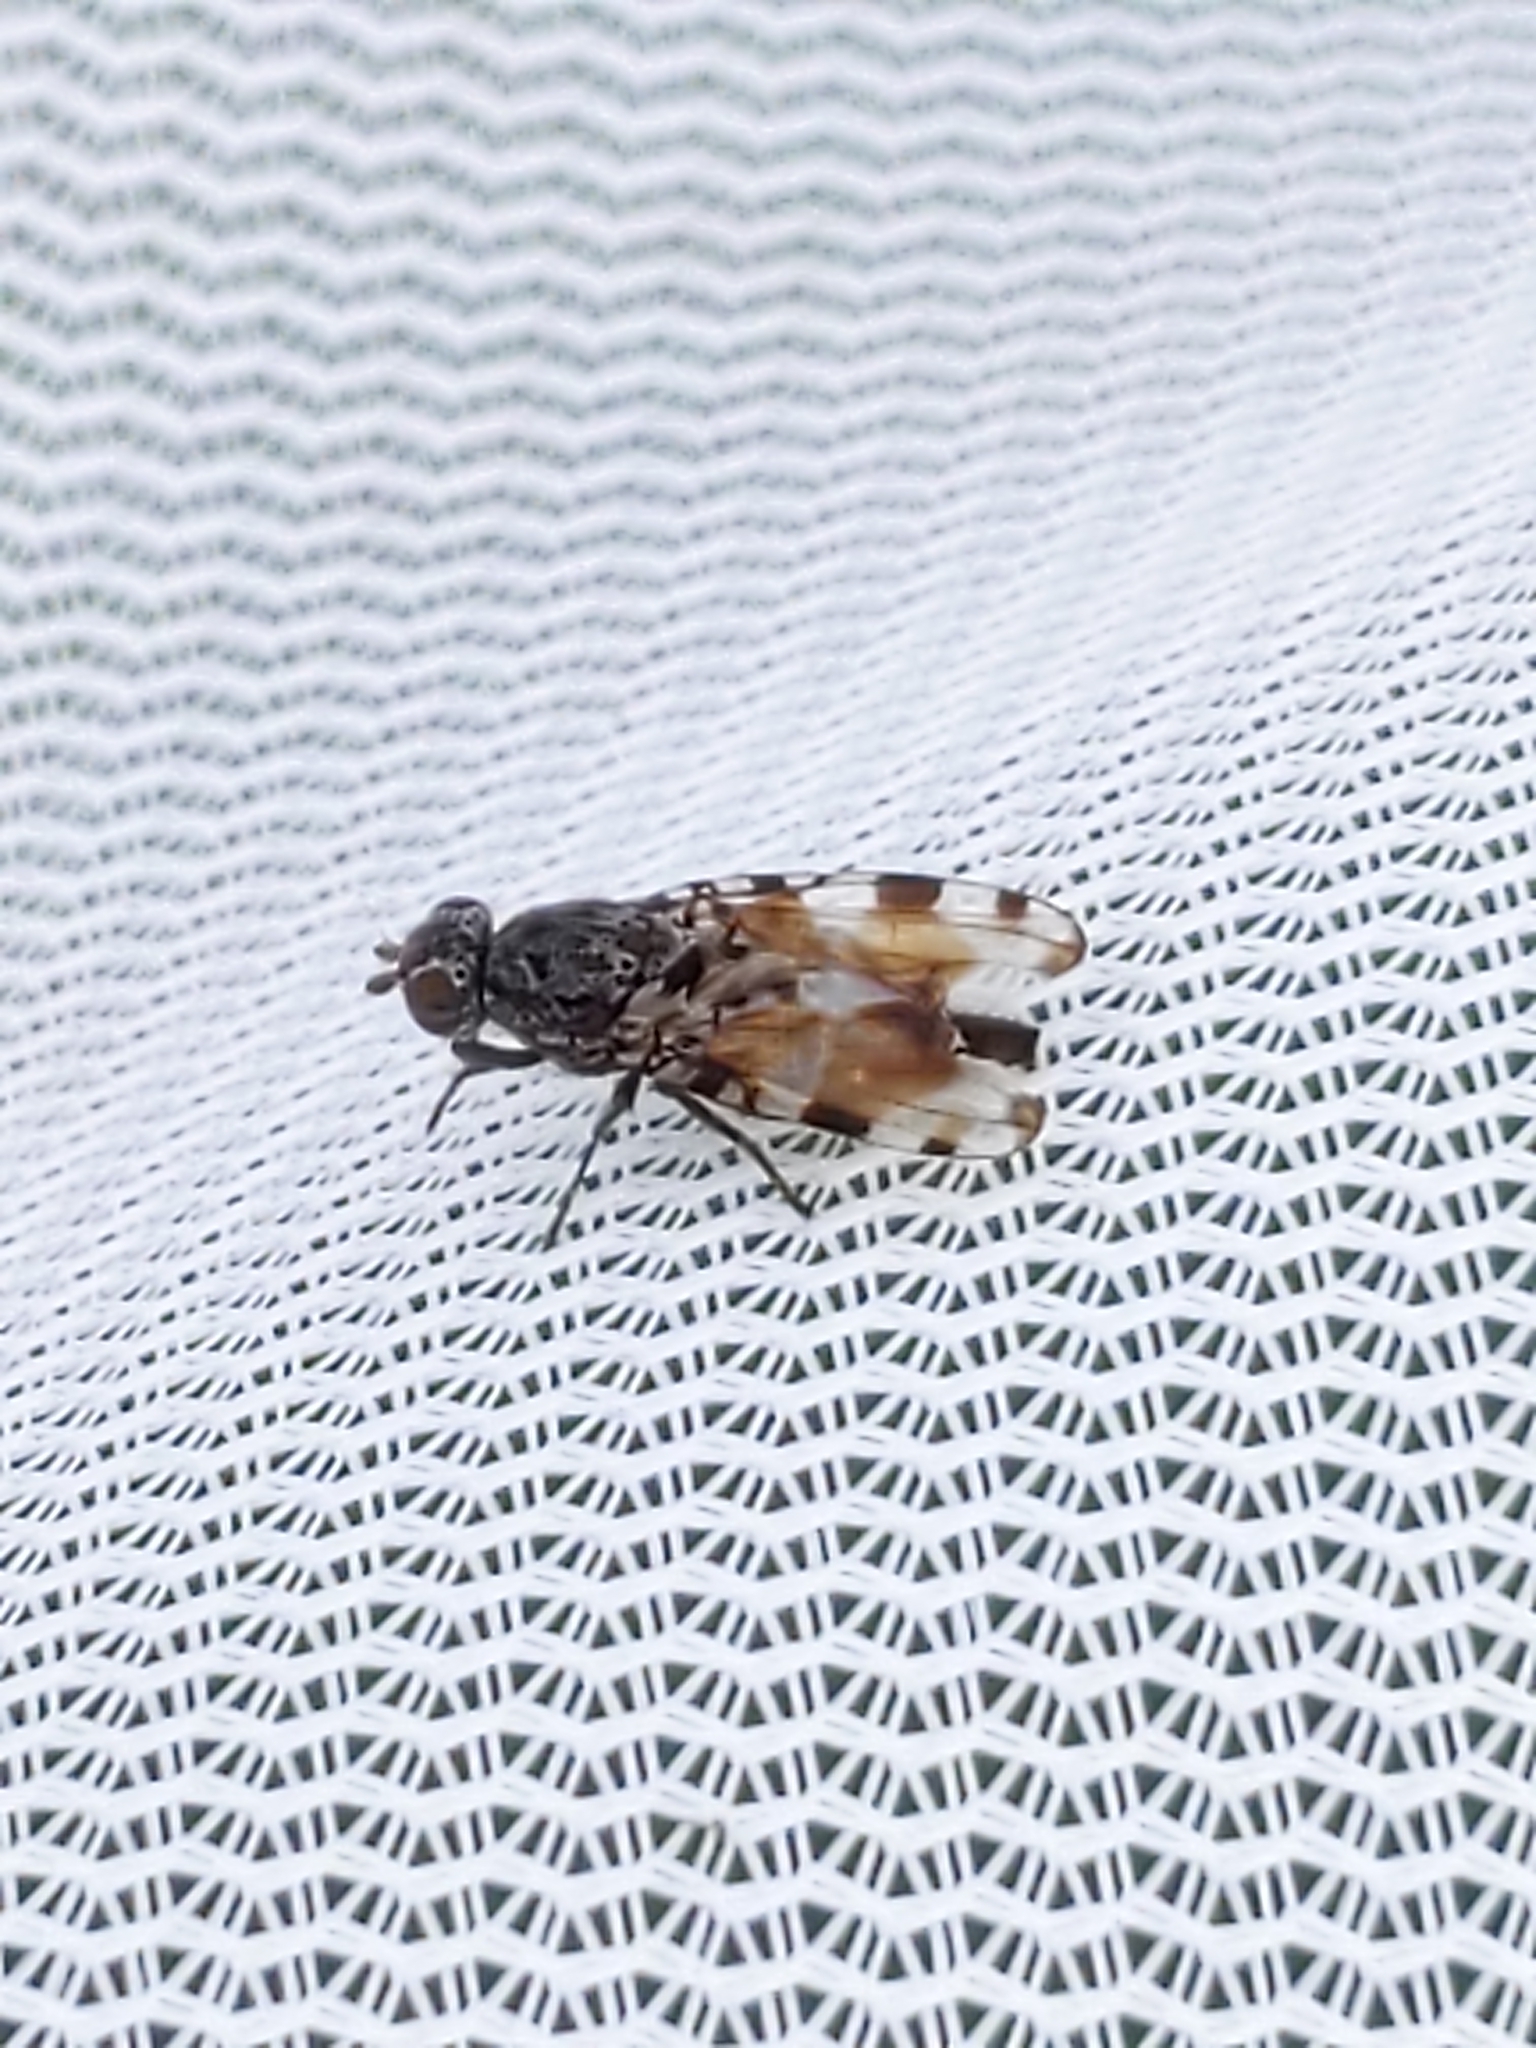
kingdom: Animalia
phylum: Arthropoda
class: Insecta
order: Diptera
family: Ulidiidae
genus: Pseudotephritis
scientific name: Pseudotephritis vau
